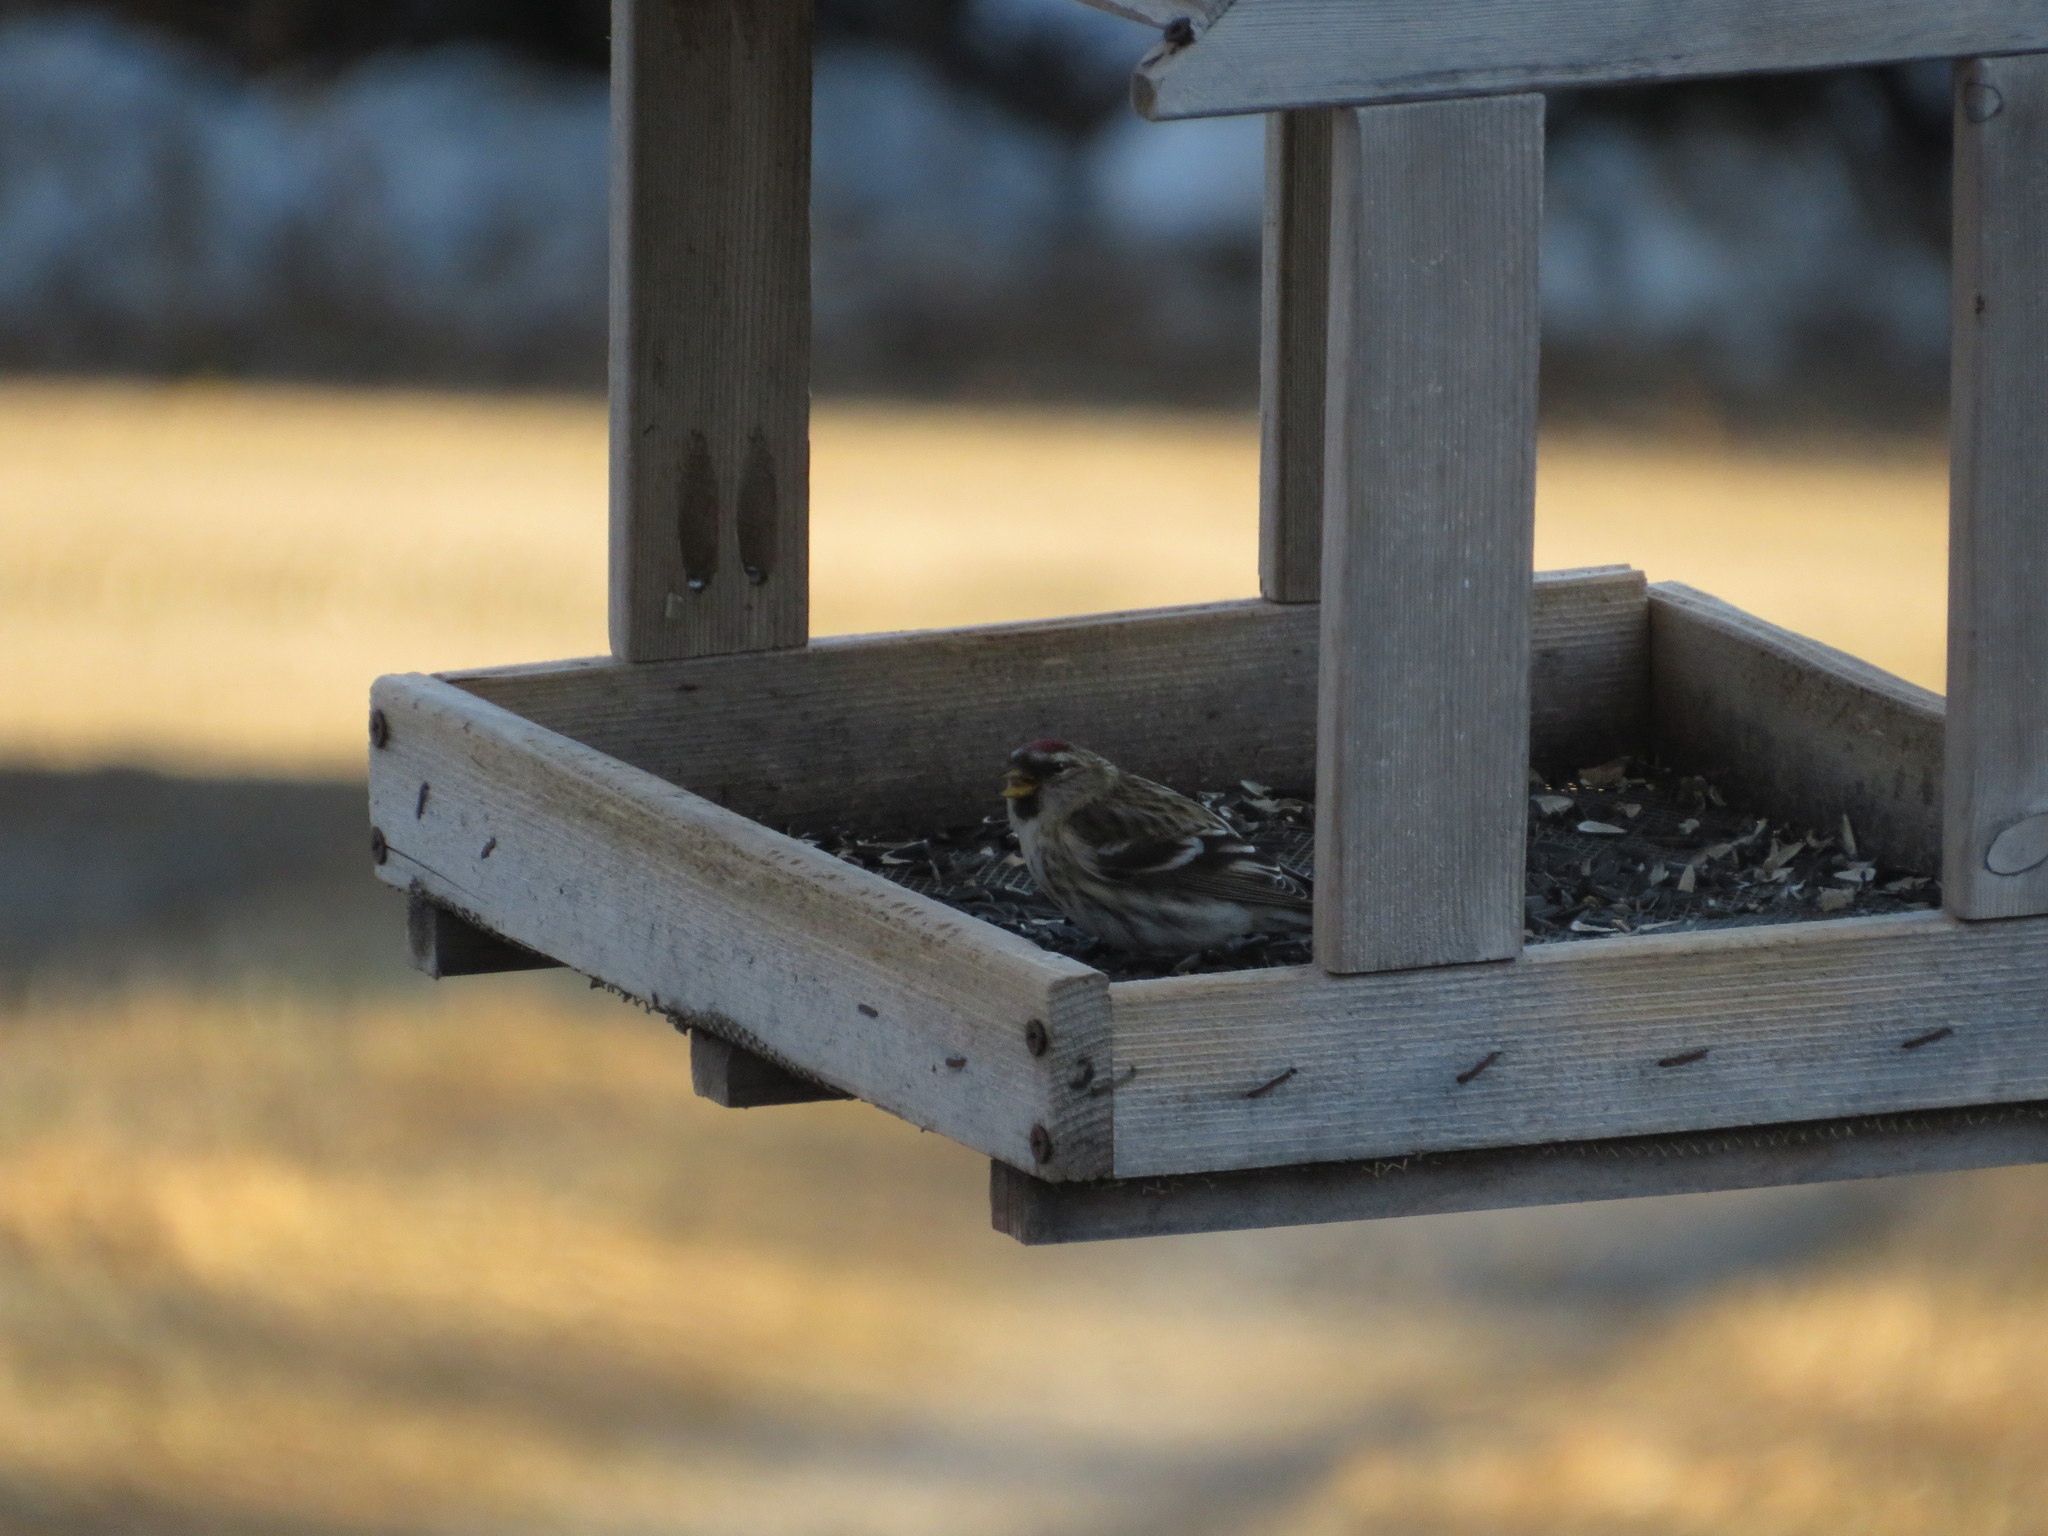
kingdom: Animalia
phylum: Chordata
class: Aves
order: Passeriformes
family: Fringillidae
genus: Acanthis
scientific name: Acanthis flammea
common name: Common redpoll
